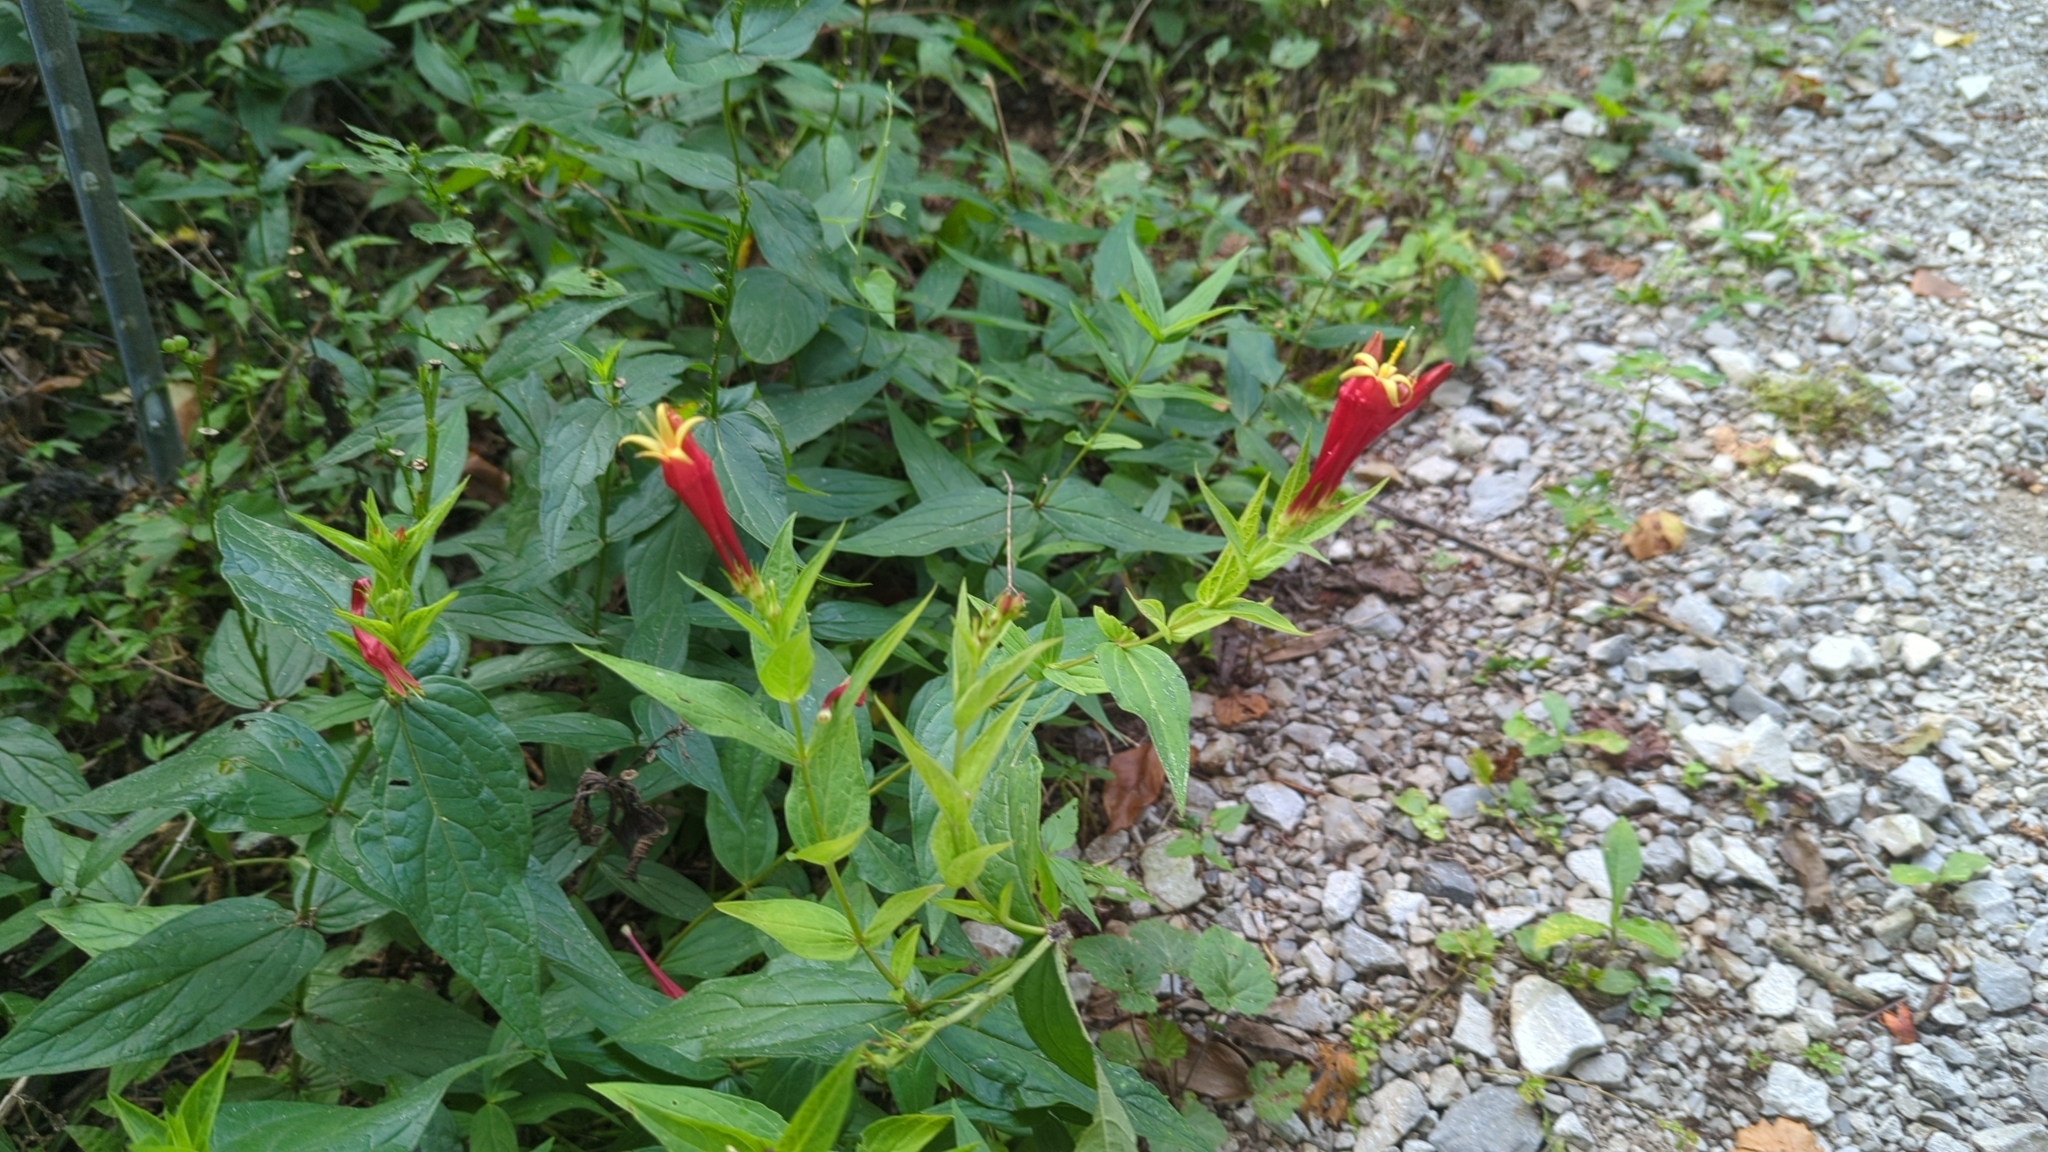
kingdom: Plantae
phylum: Tracheophyta
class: Magnoliopsida
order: Gentianales
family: Loganiaceae
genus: Spigelia
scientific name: Spigelia marilandica
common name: Indian-pink
